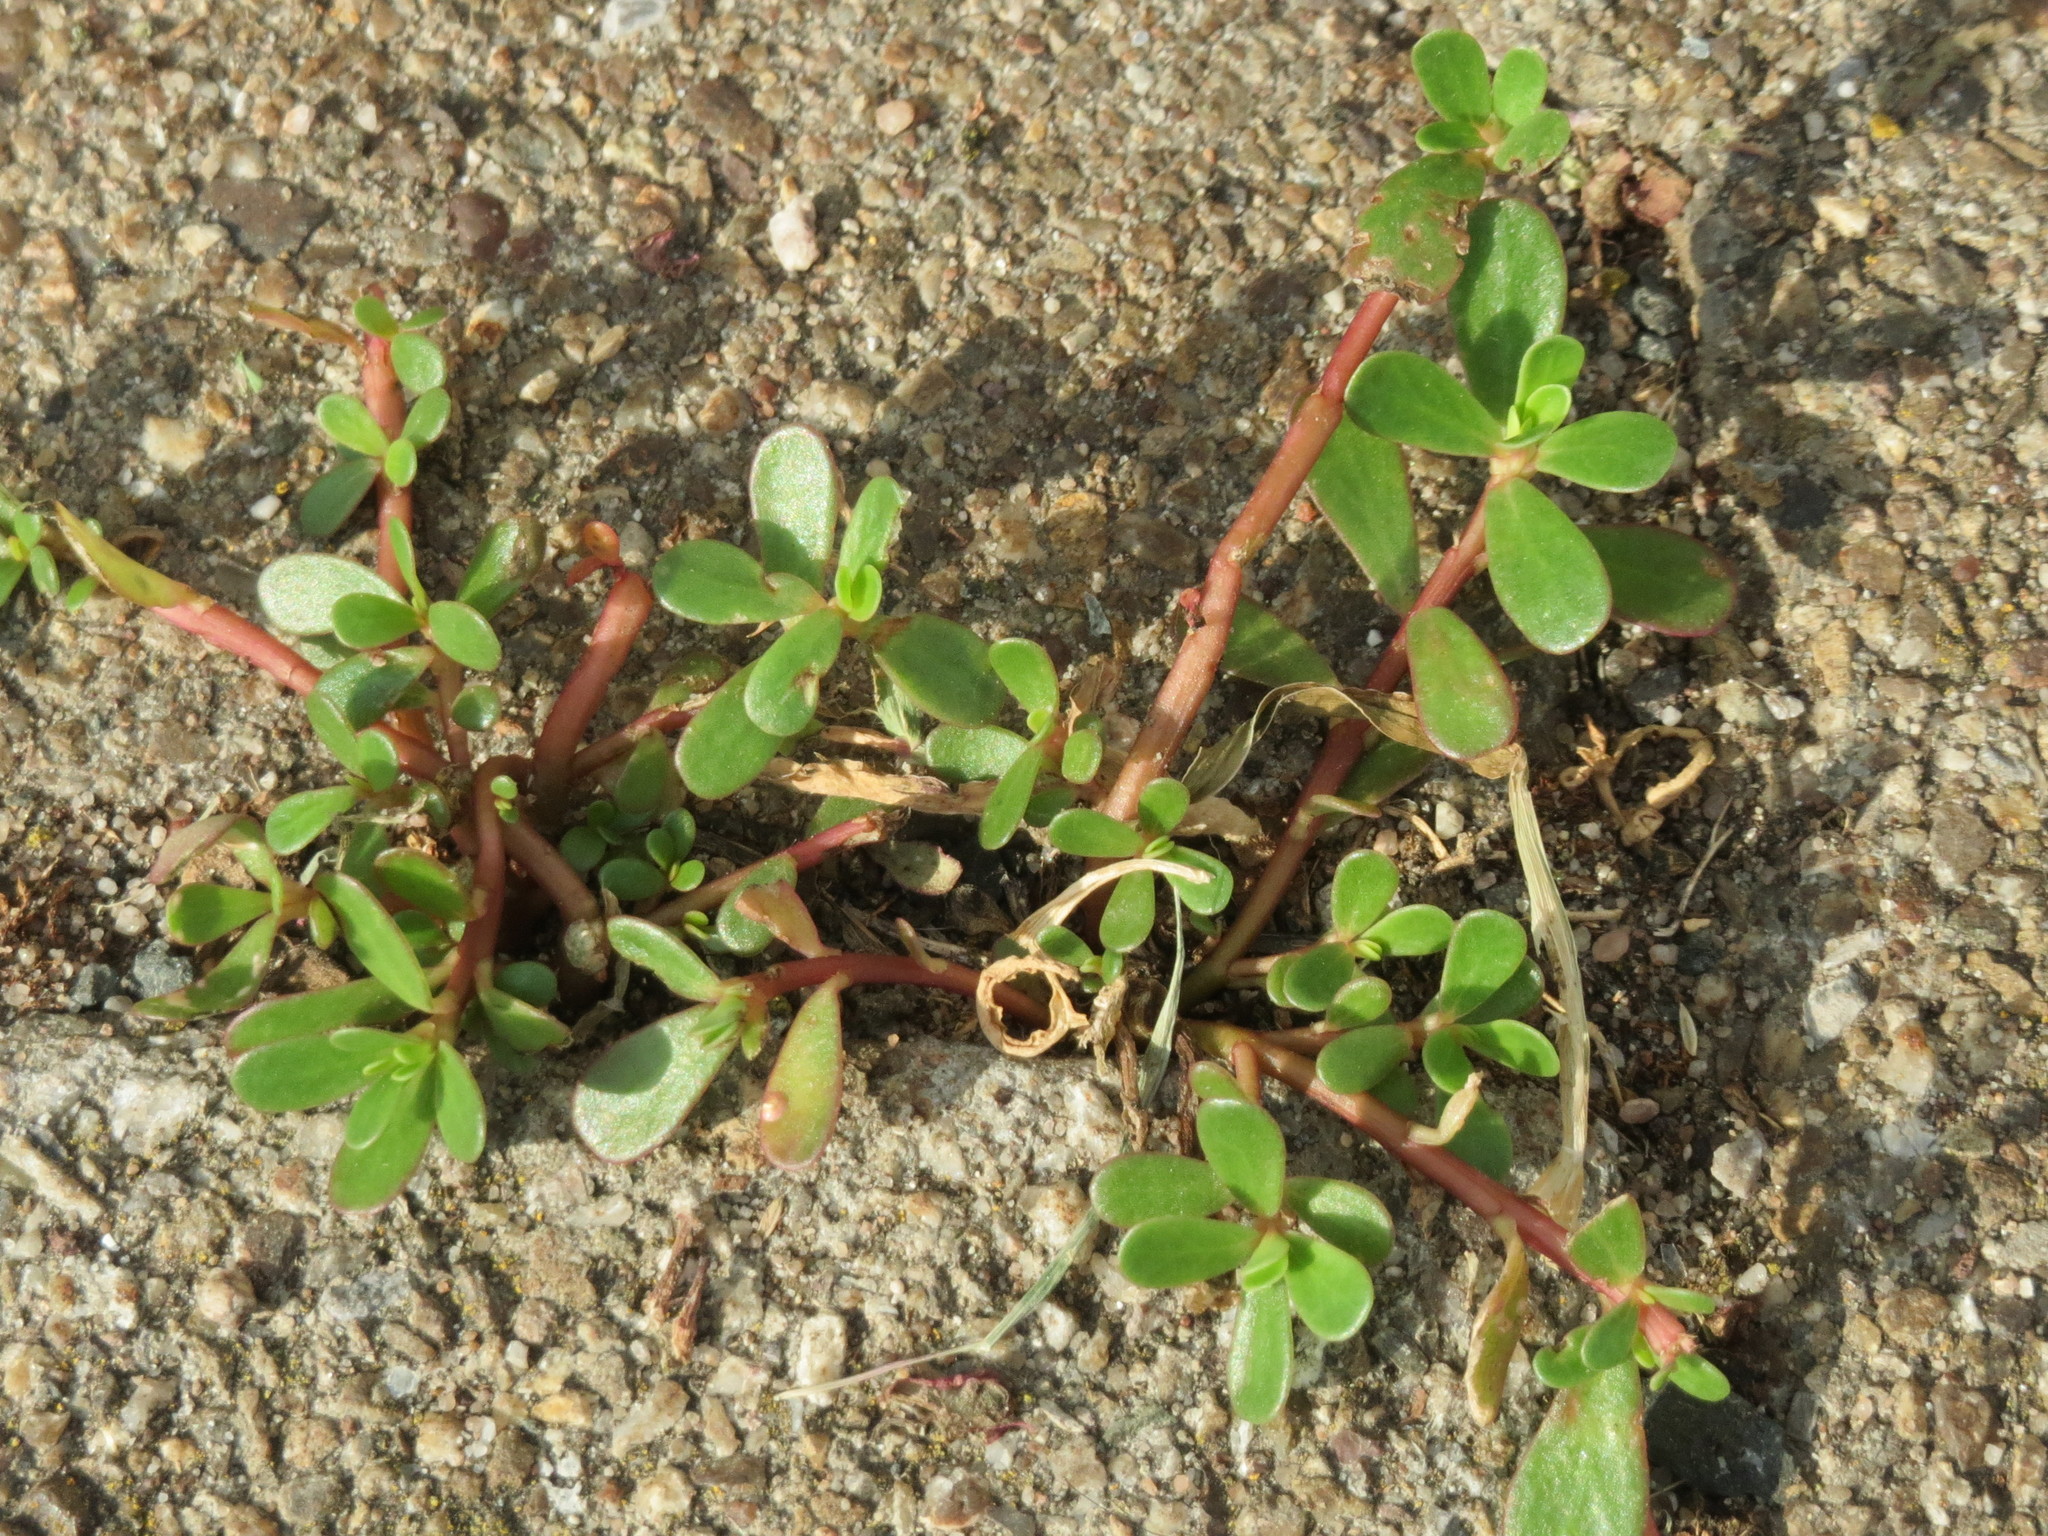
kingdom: Plantae
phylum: Tracheophyta
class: Magnoliopsida
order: Caryophyllales
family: Portulacaceae
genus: Portulaca
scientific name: Portulaca oleracea
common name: Common purslane
